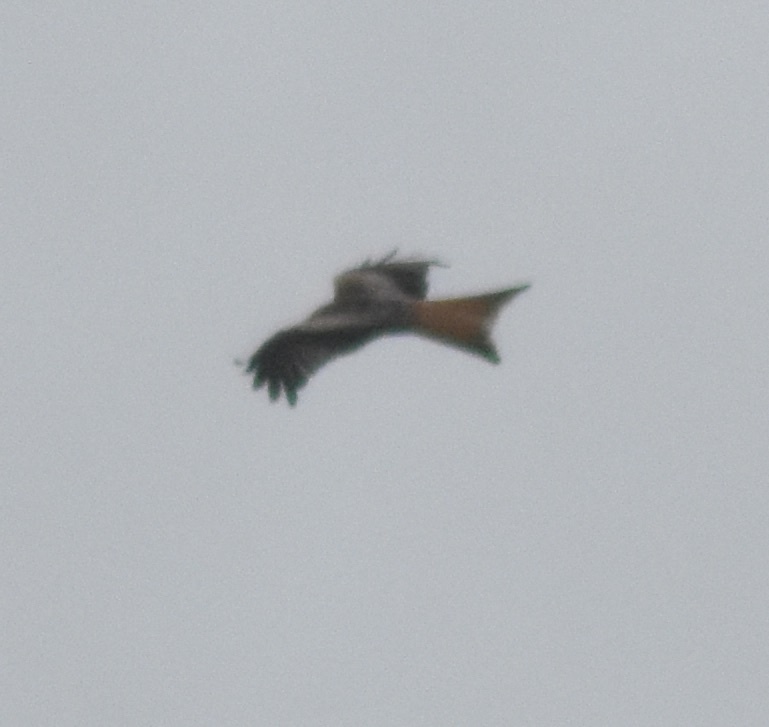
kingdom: Animalia
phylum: Chordata
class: Aves
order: Accipitriformes
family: Accipitridae
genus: Milvus
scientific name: Milvus milvus
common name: Red kite
